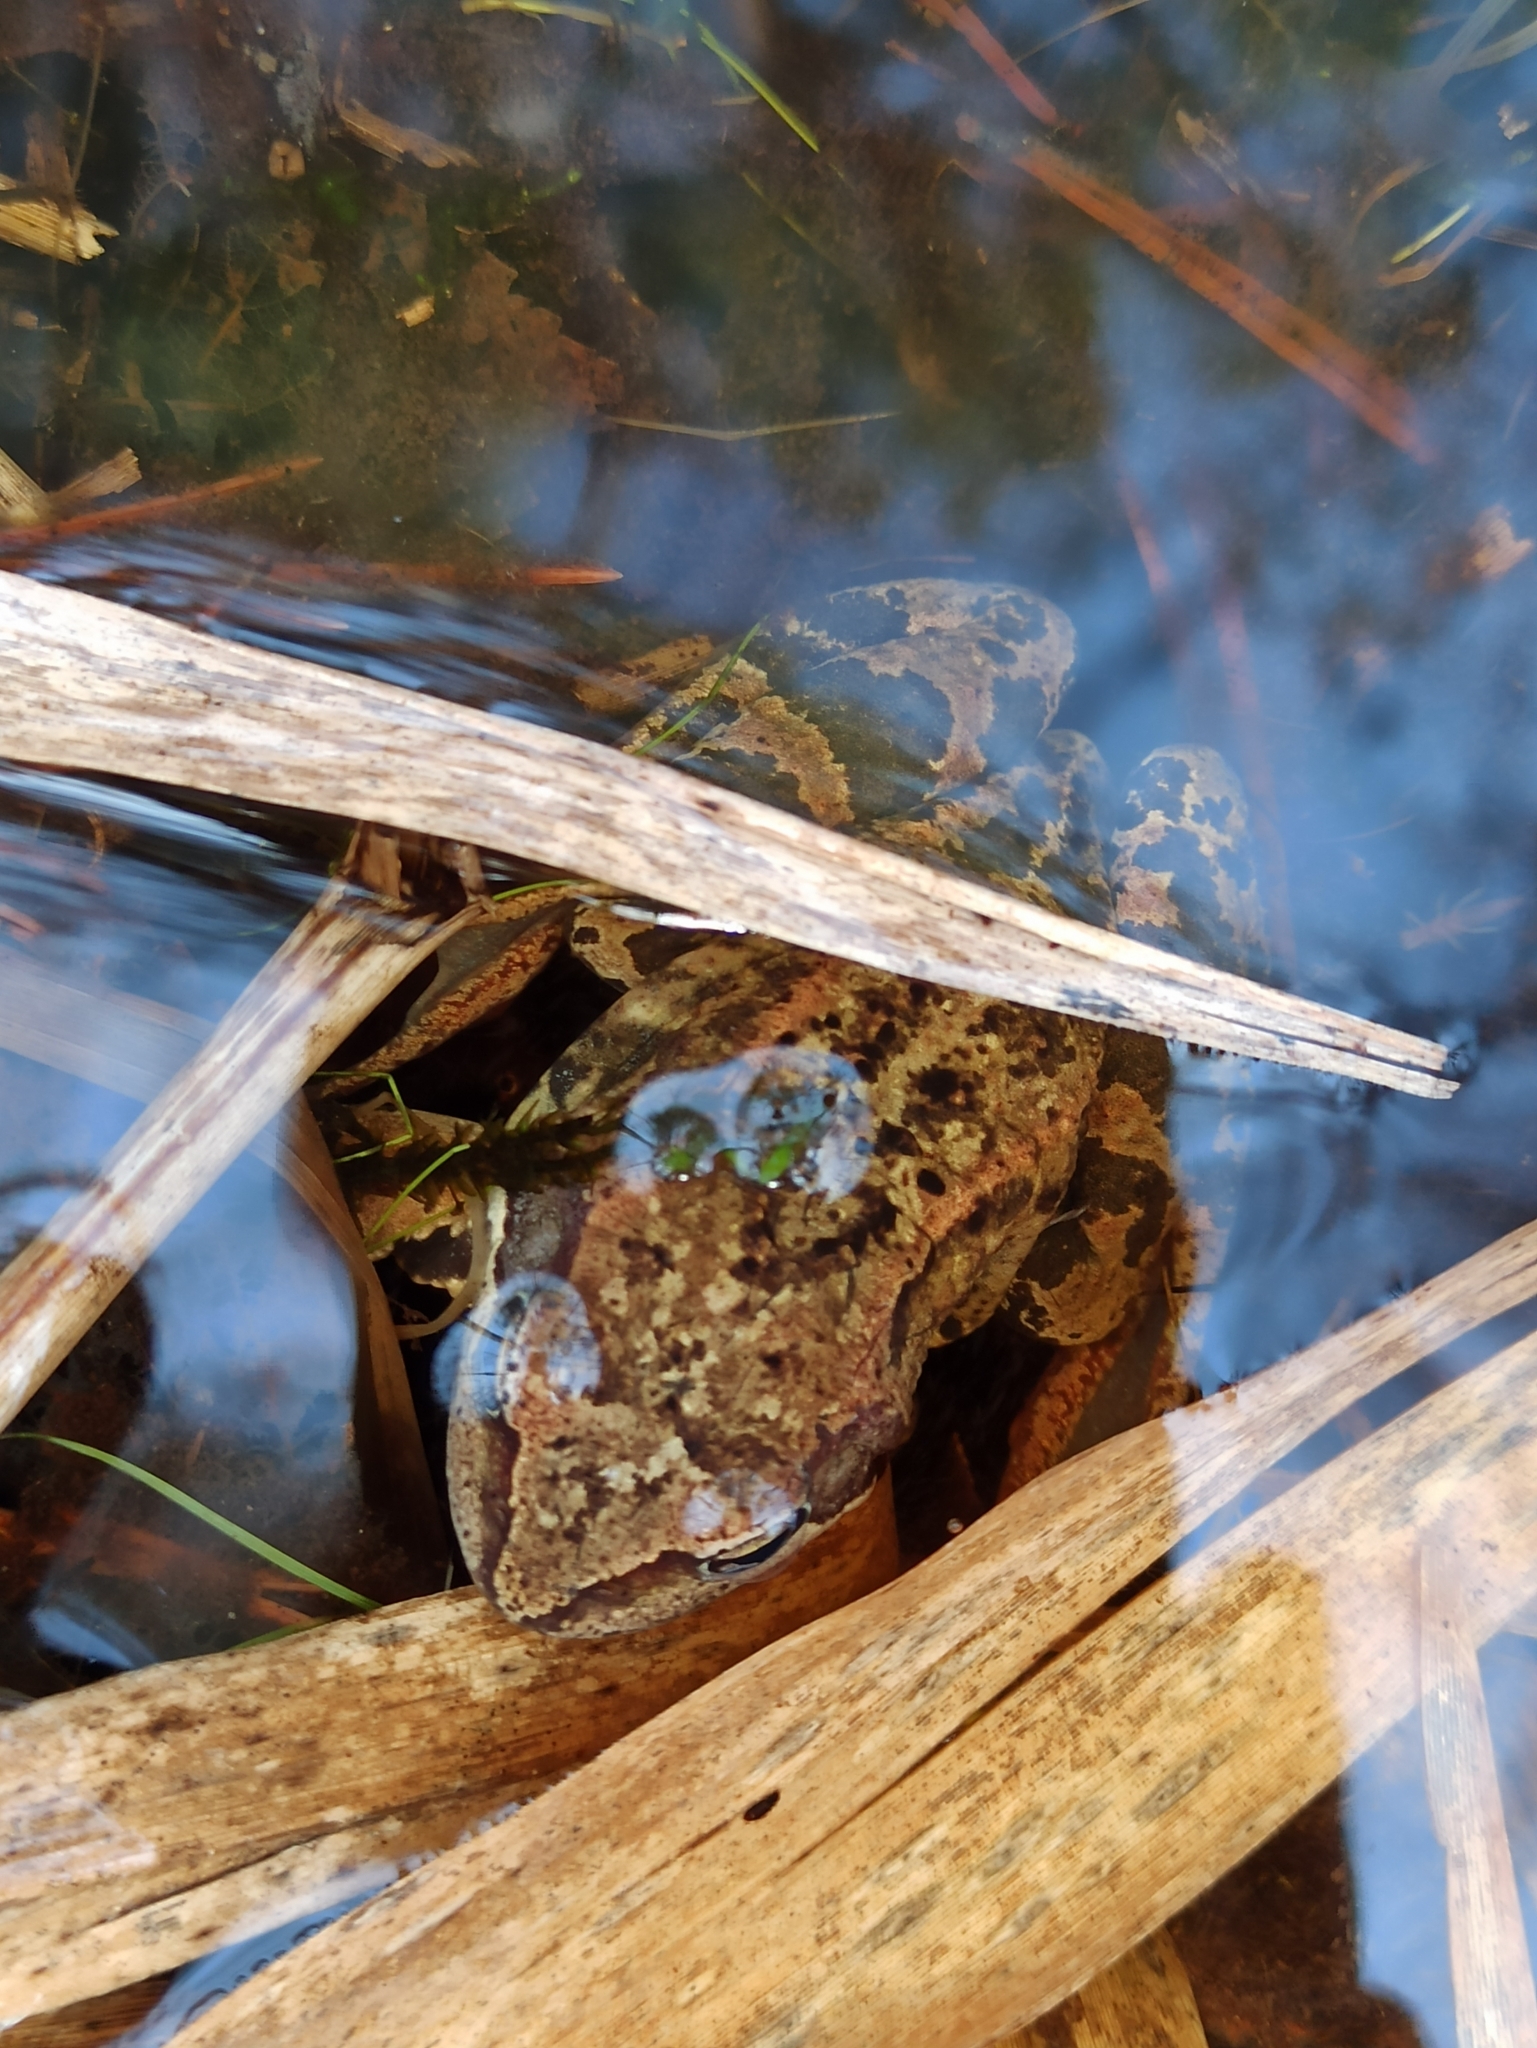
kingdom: Animalia
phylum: Chordata
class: Amphibia
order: Anura
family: Ranidae
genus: Rana
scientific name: Rana temporaria
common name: Common frog
